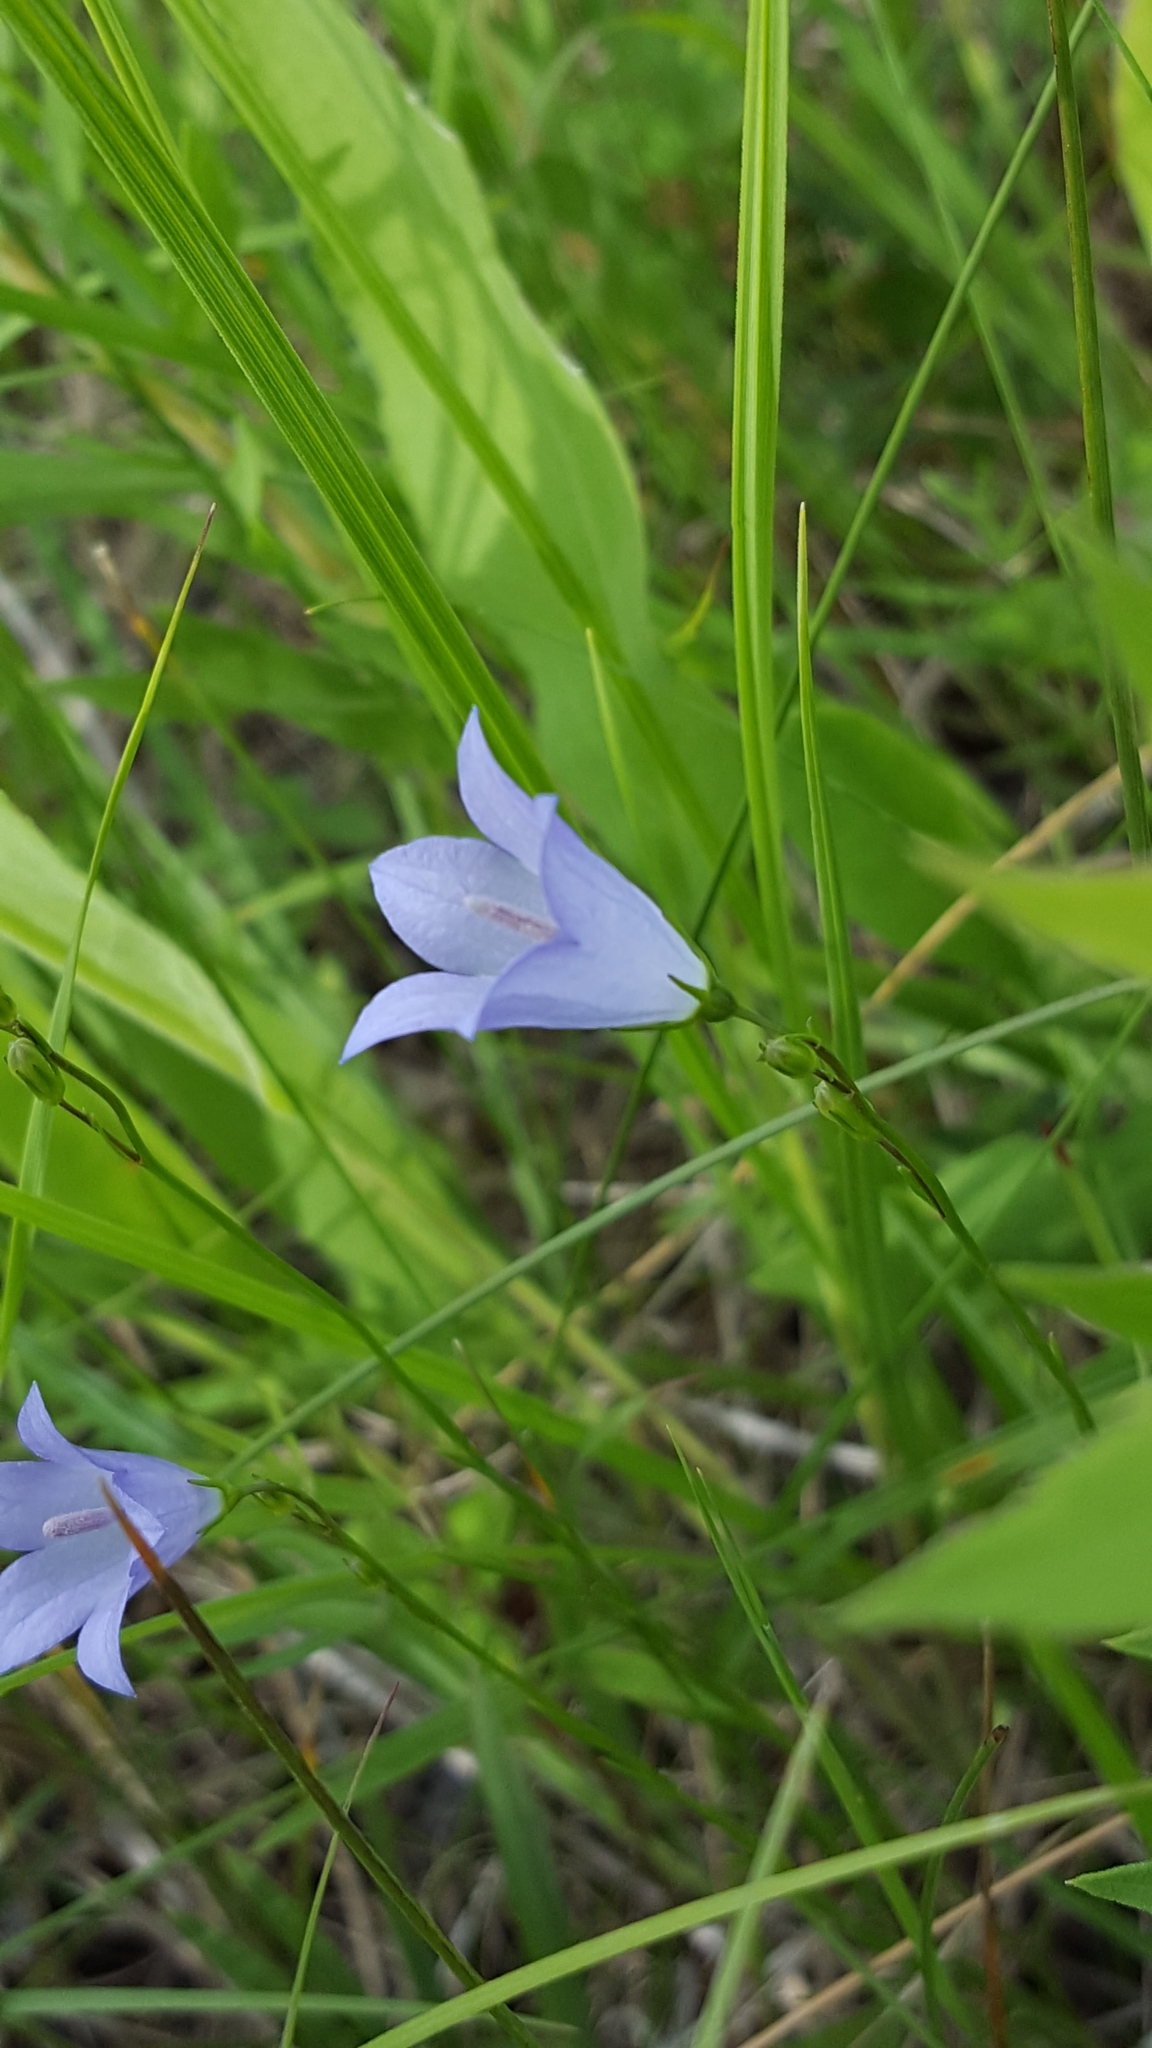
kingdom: Plantae
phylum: Tracheophyta
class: Magnoliopsida
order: Asterales
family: Campanulaceae
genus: Campanula
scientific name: Campanula intercedens
